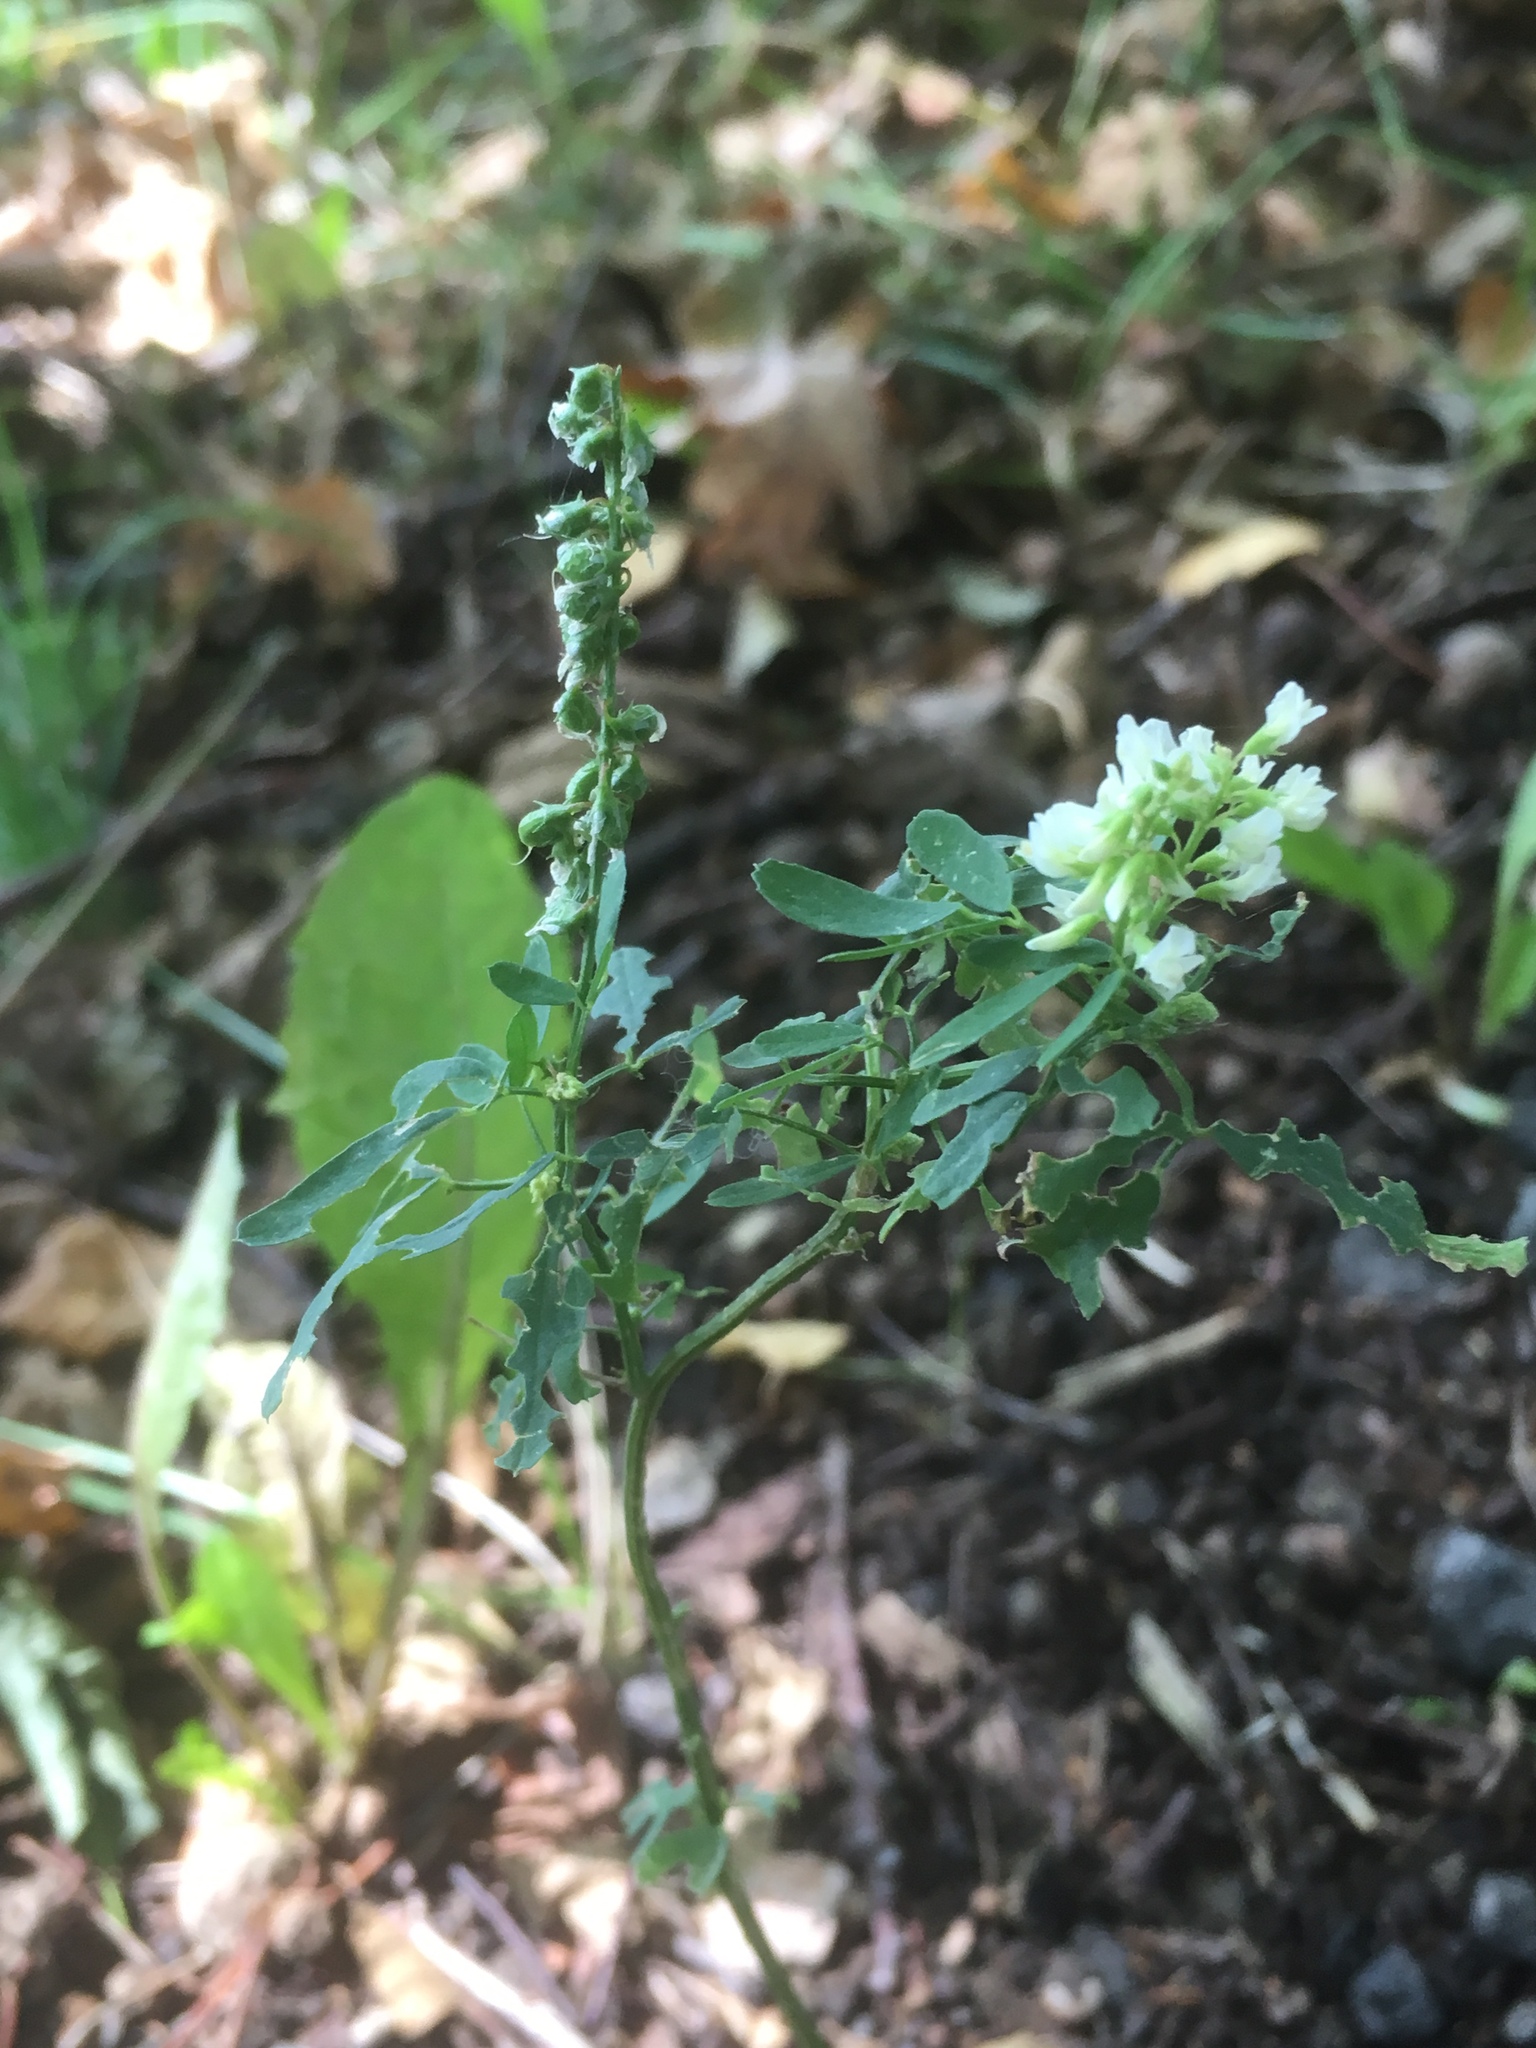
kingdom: Plantae
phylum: Tracheophyta
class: Magnoliopsida
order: Fabales
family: Fabaceae
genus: Melilotus
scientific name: Melilotus albus
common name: White melilot
